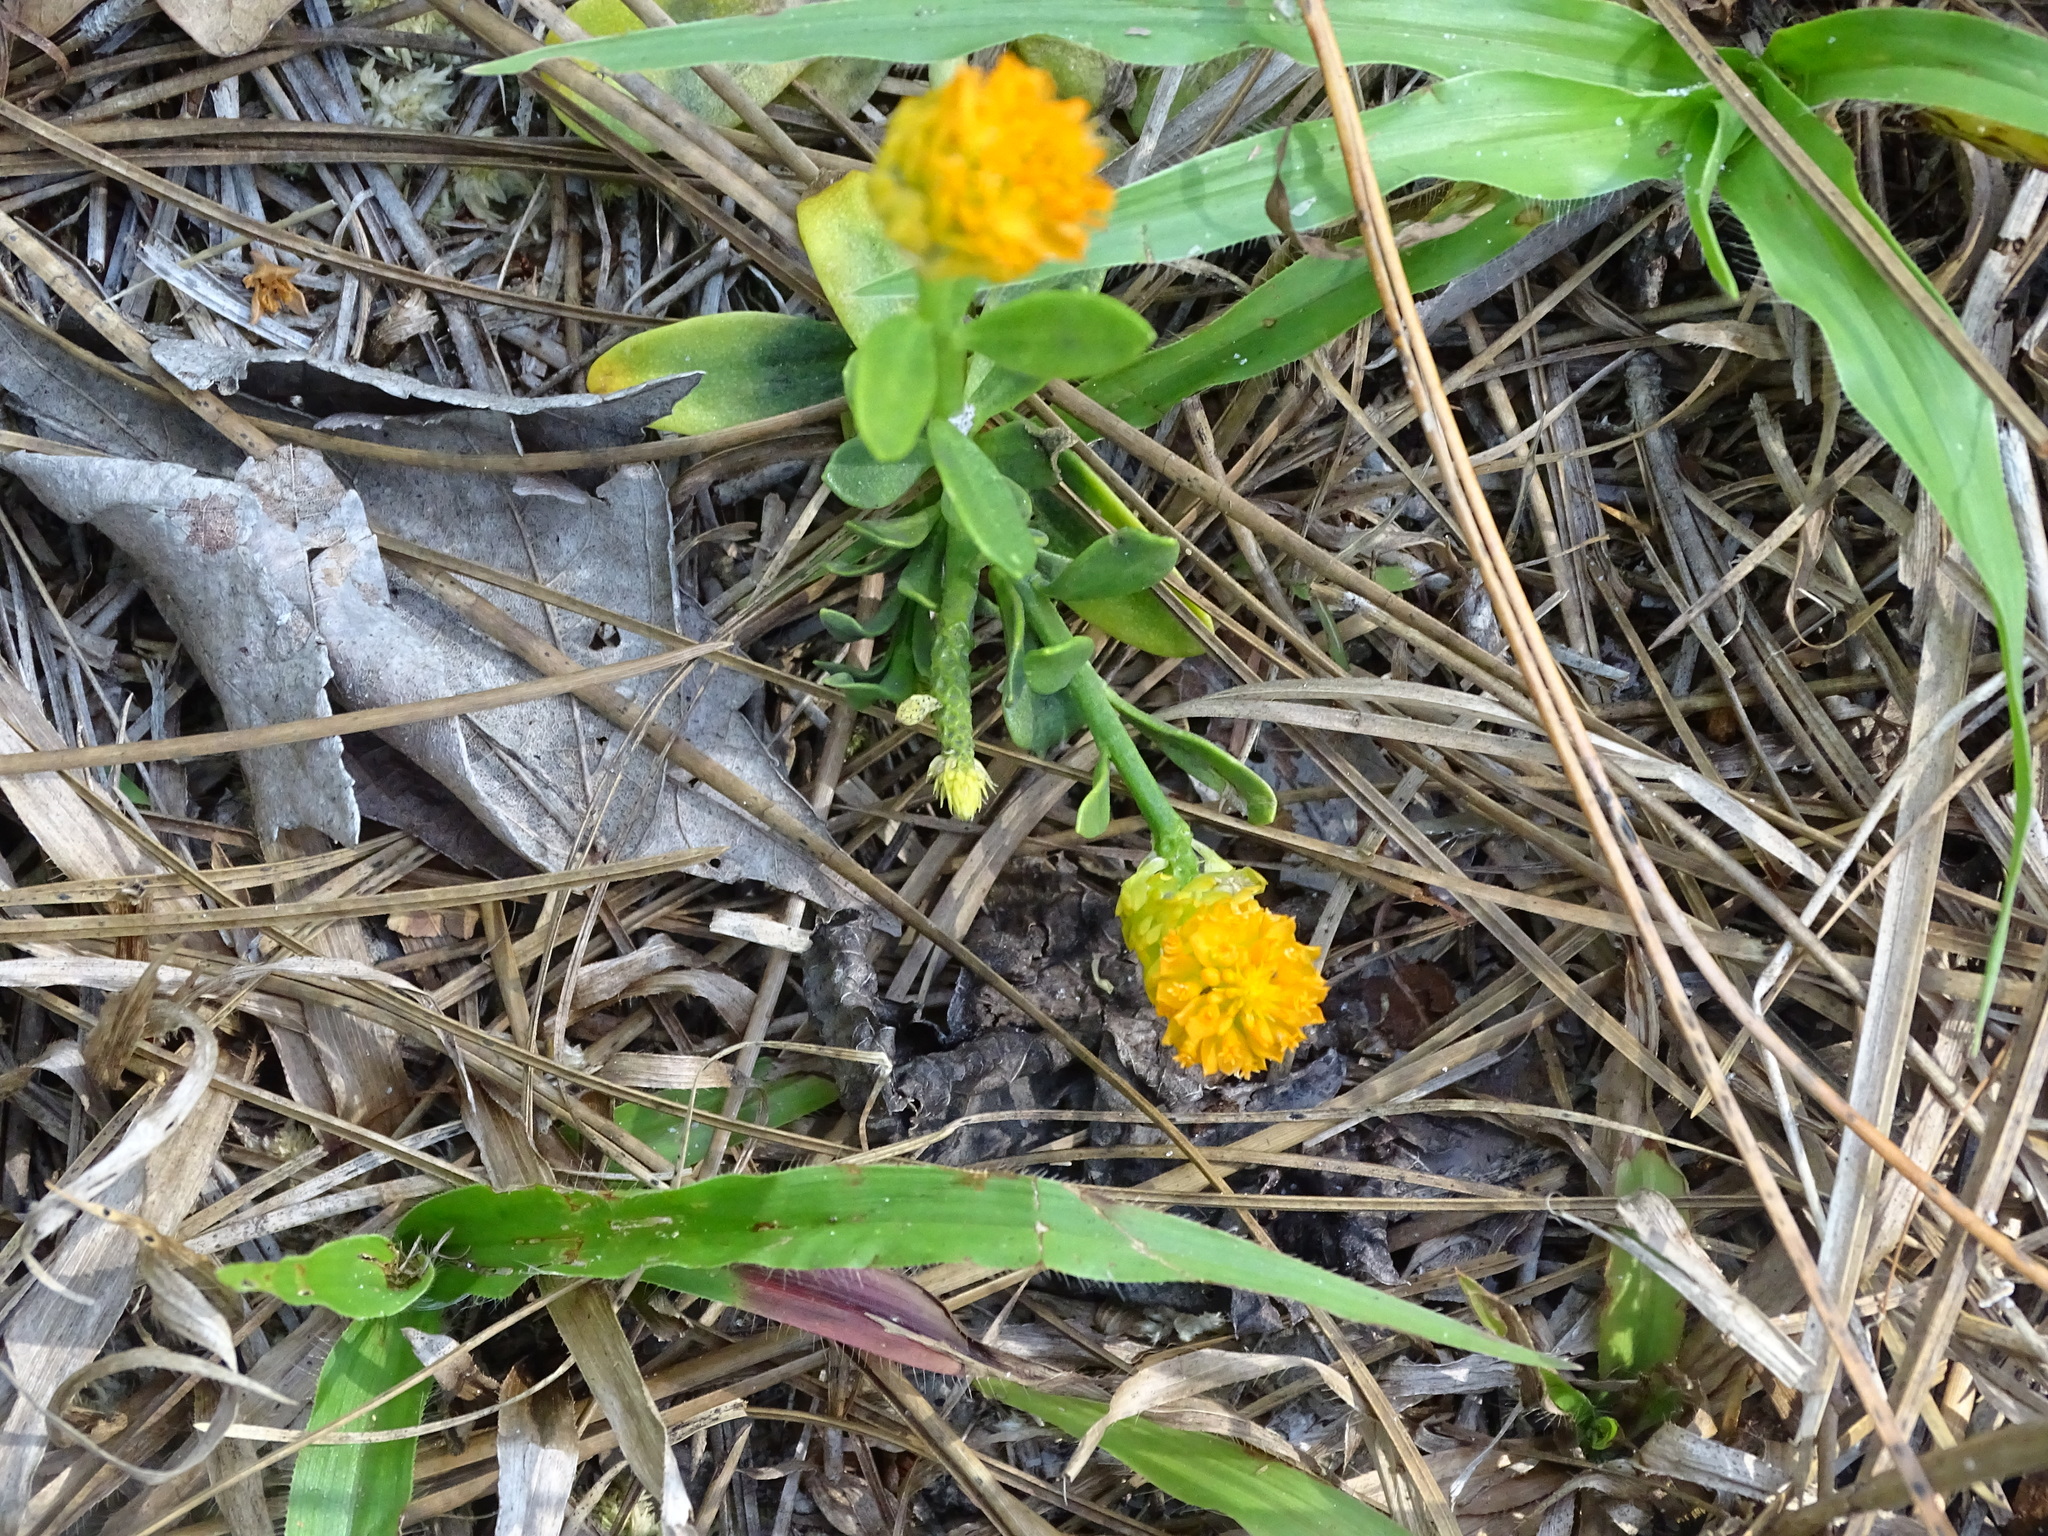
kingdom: Plantae
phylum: Tracheophyta
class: Magnoliopsida
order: Fabales
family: Polygalaceae
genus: Polygala
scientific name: Polygala lutea
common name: Orange milkwort
